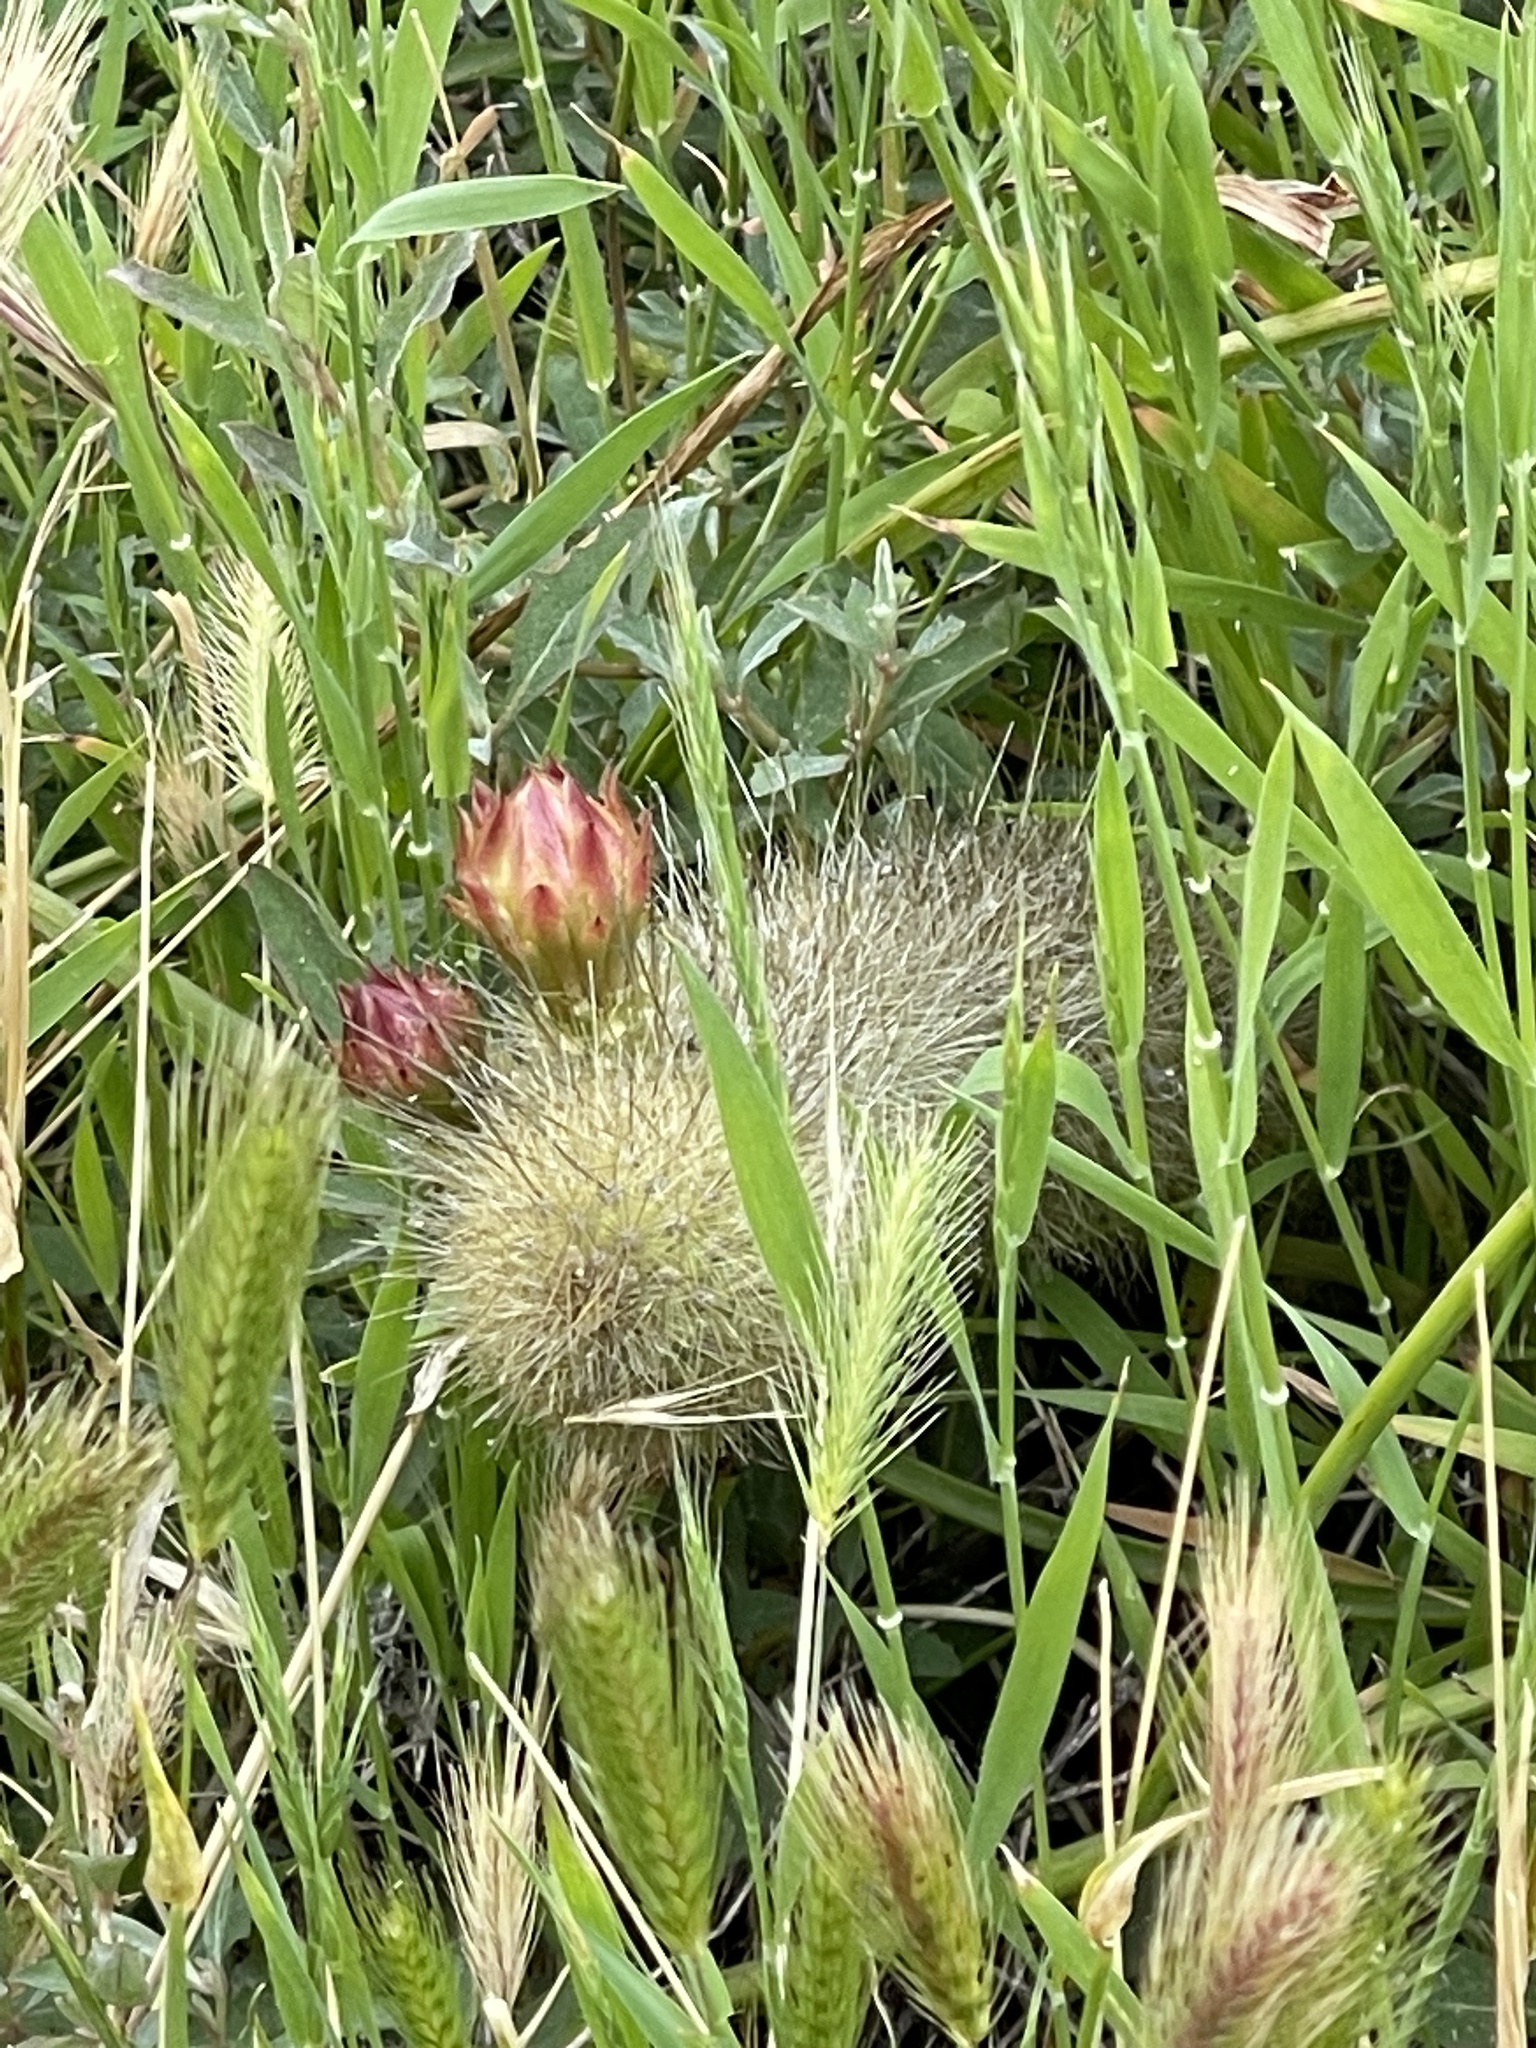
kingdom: Plantae
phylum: Tracheophyta
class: Magnoliopsida
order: Caryophyllales
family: Cactaceae
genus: Bergerocactus
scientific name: Bergerocactus emoryi
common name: Golden snakecactus
